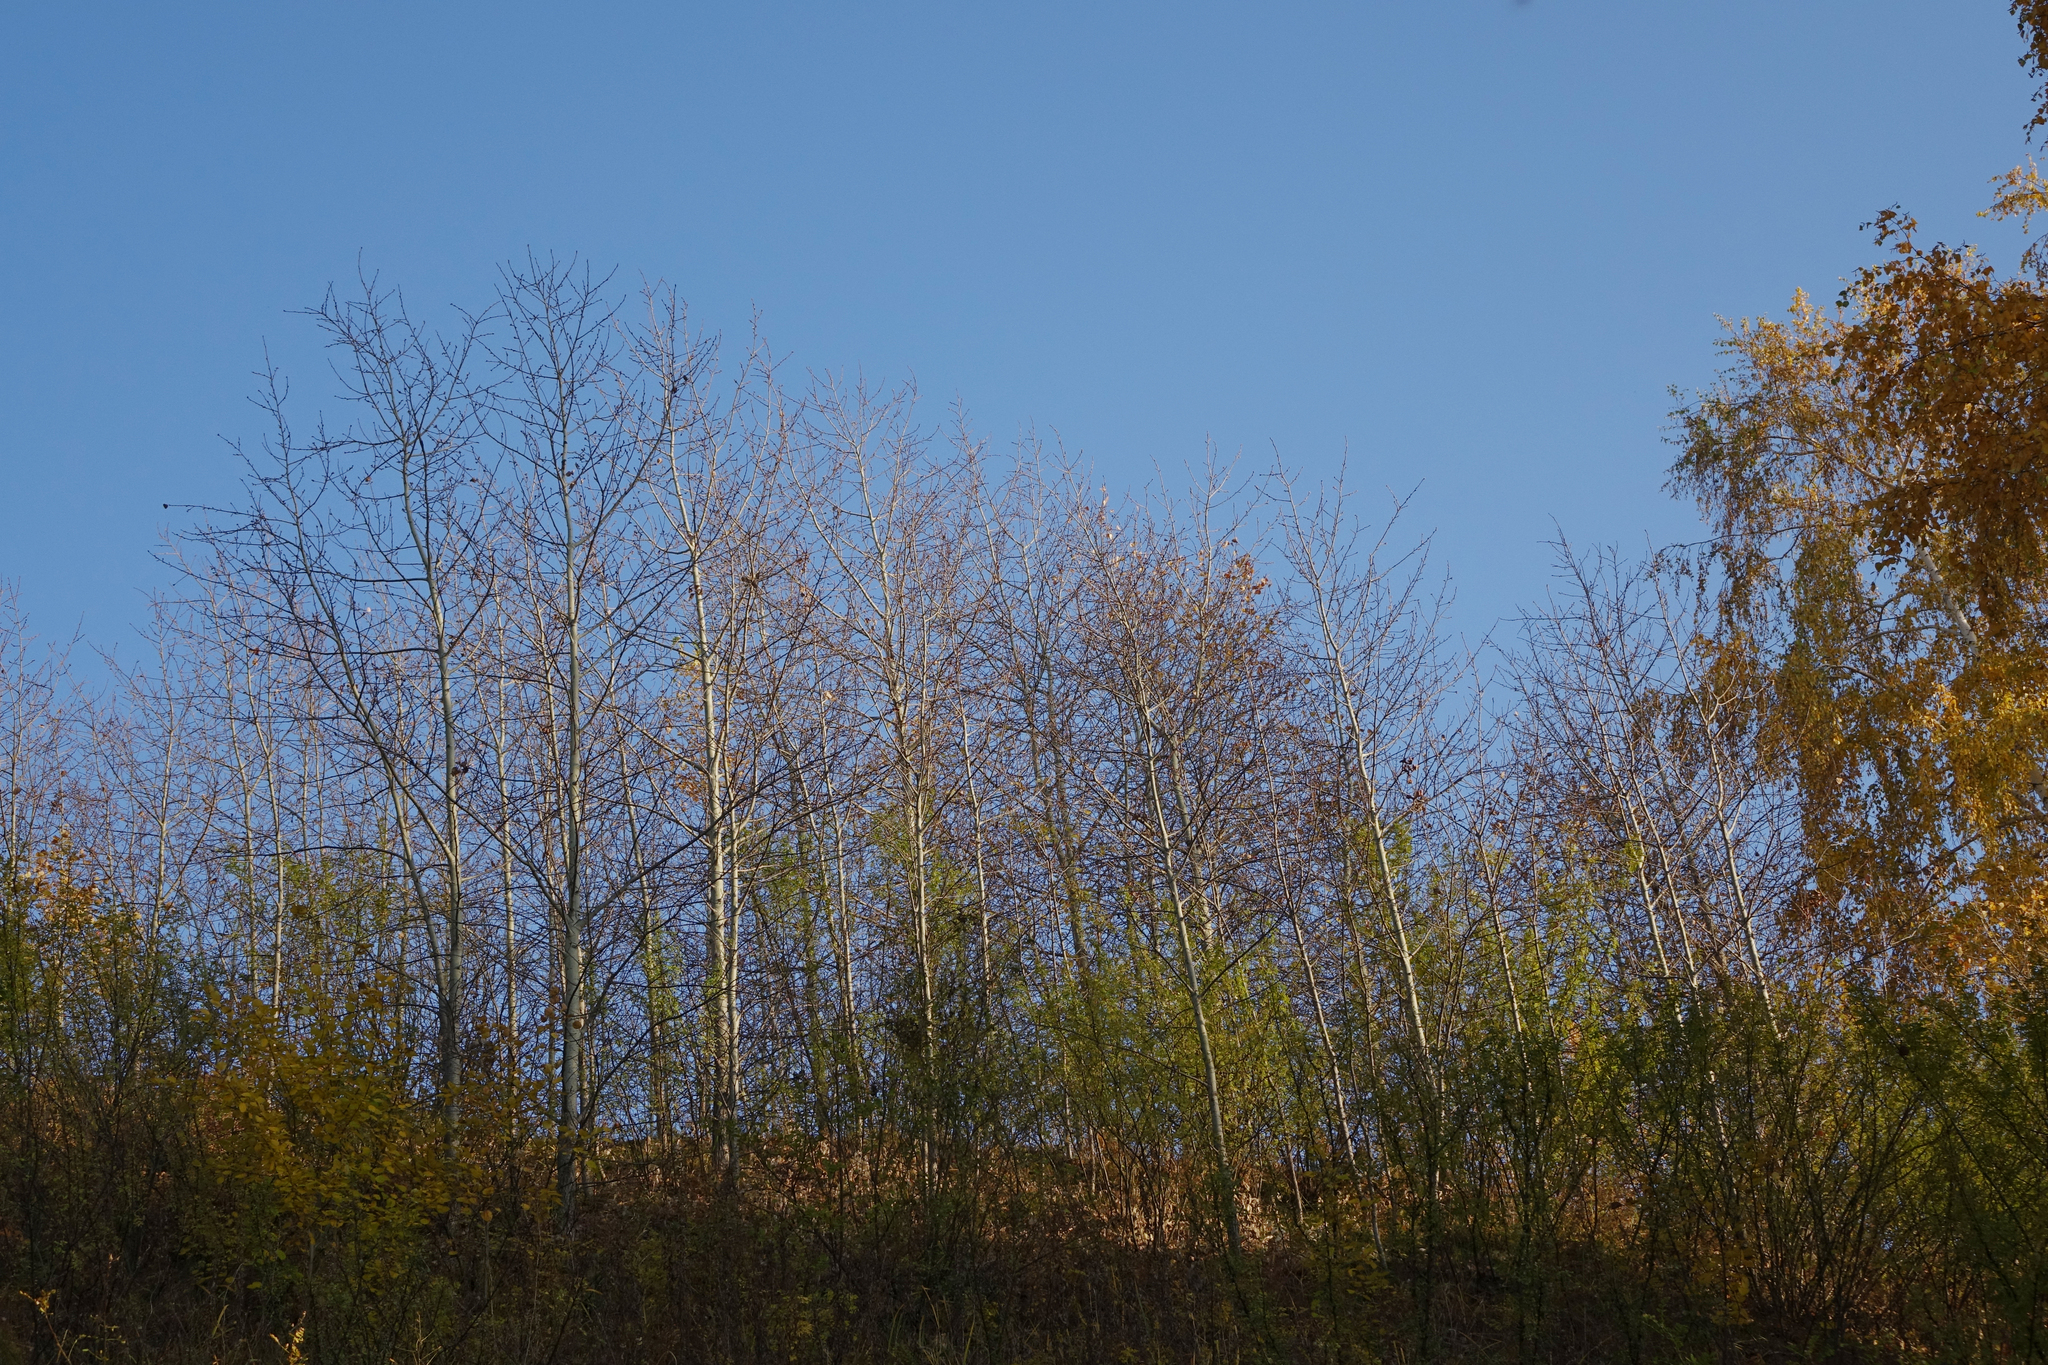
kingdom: Plantae
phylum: Tracheophyta
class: Magnoliopsida
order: Malpighiales
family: Salicaceae
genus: Populus
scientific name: Populus tremula
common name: European aspen
